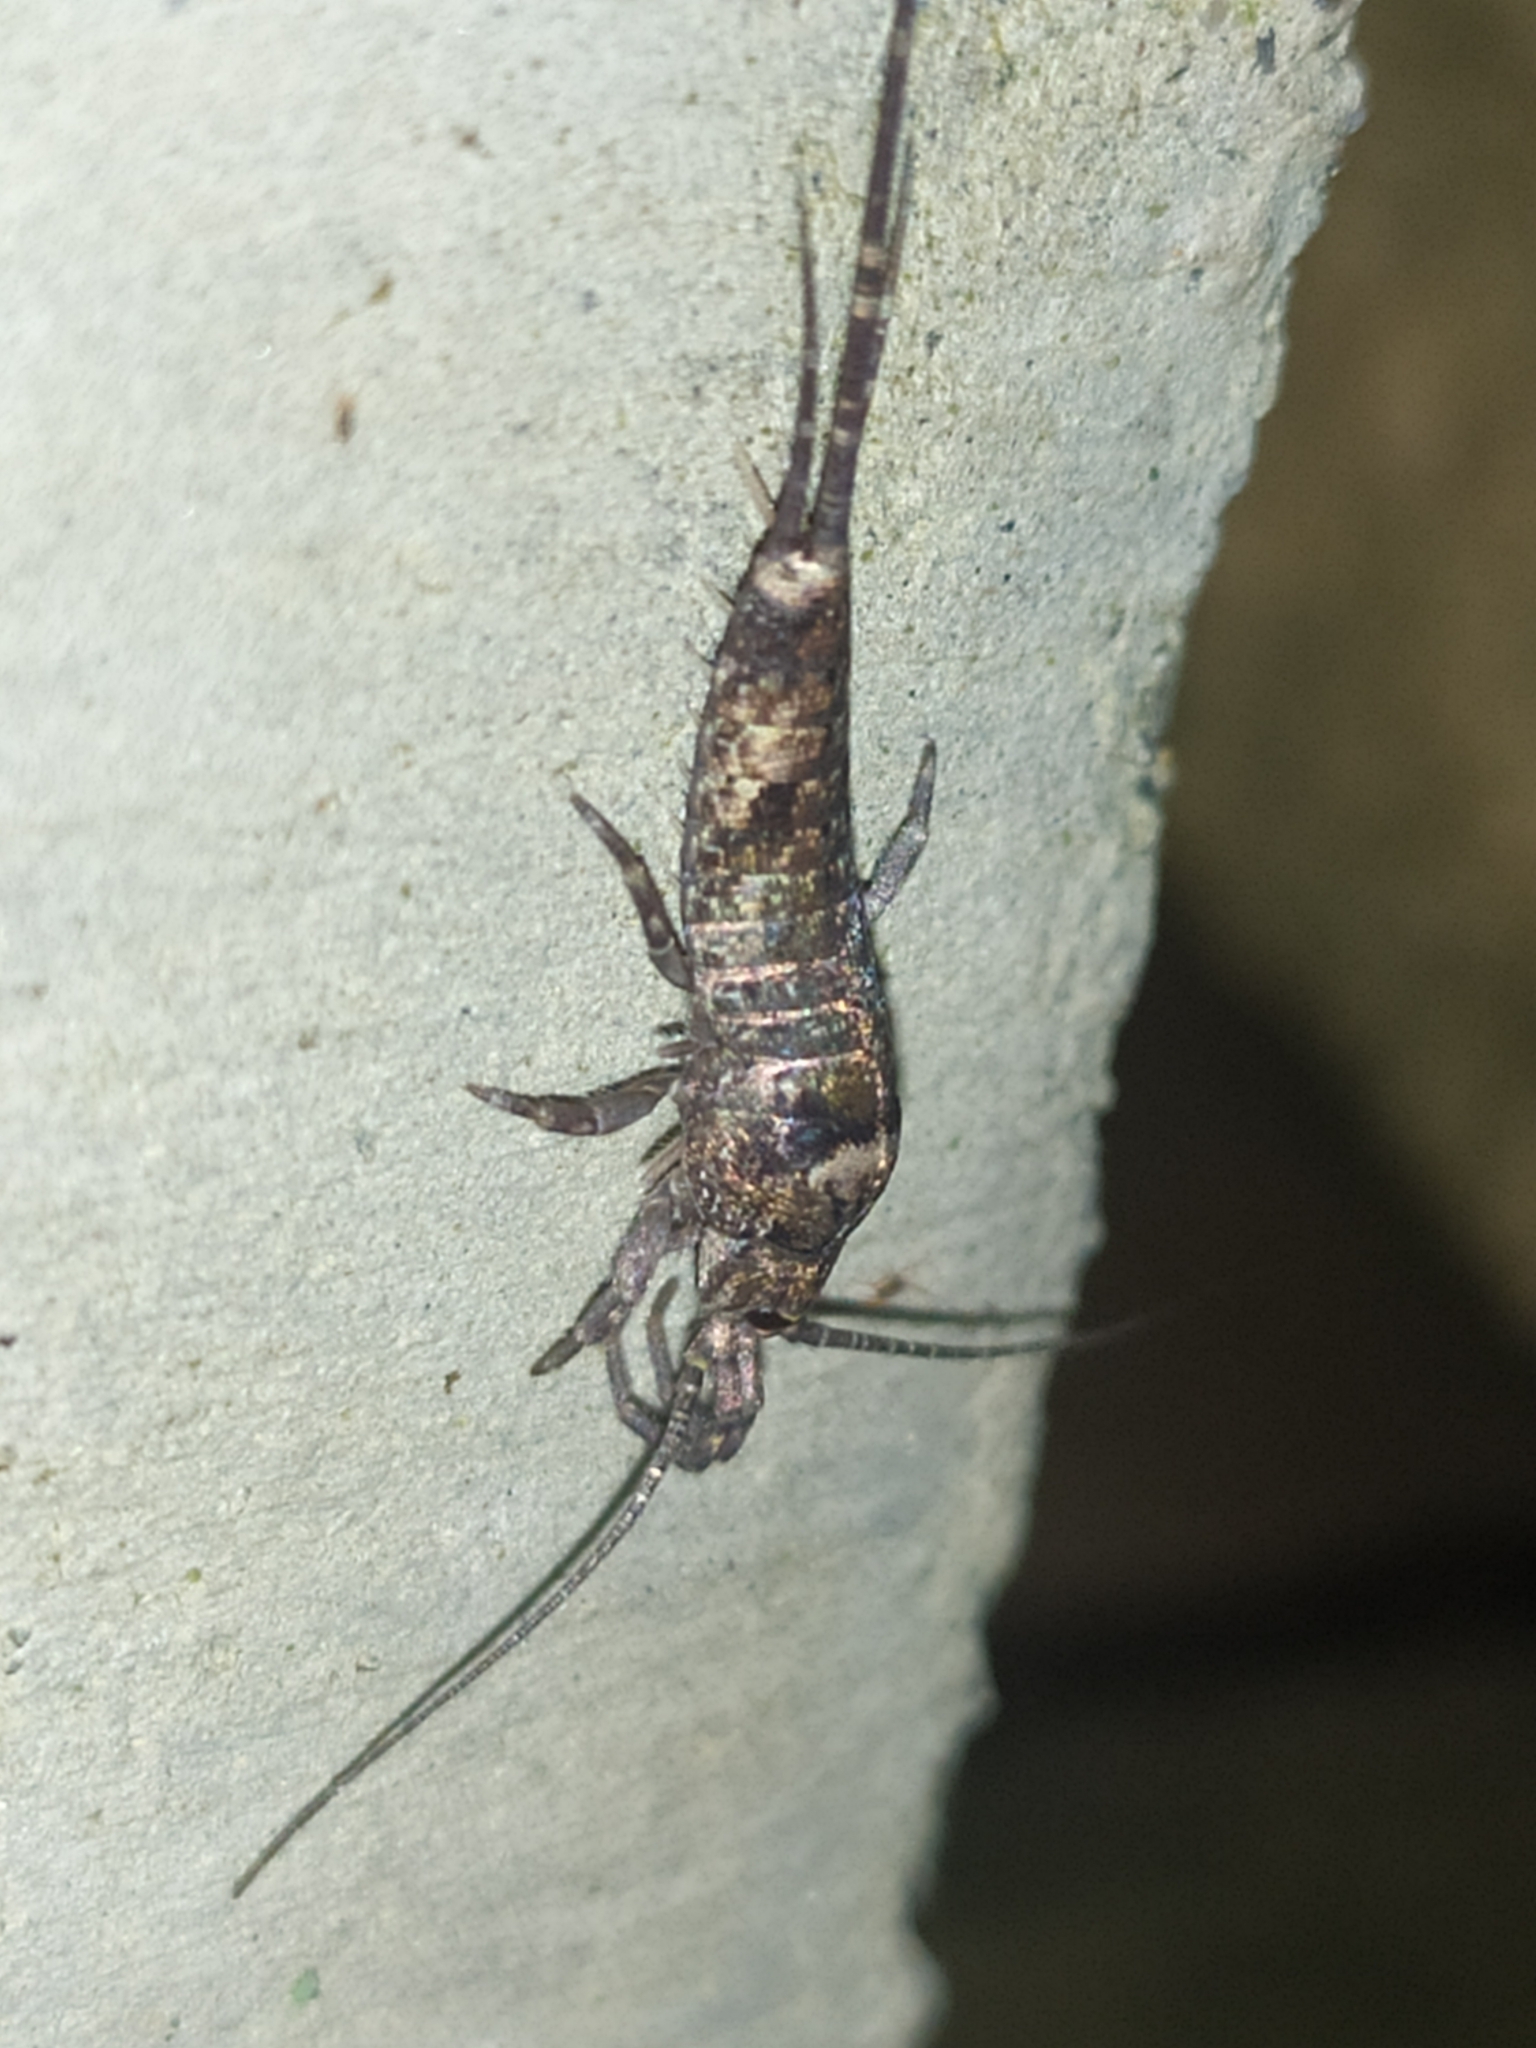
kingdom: Animalia
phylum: Arthropoda
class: Insecta
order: Archaeognatha
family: Machilidae
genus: Trigoniophthalmus
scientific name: Trigoniophthalmus alternatus
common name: Jumping bristletail
